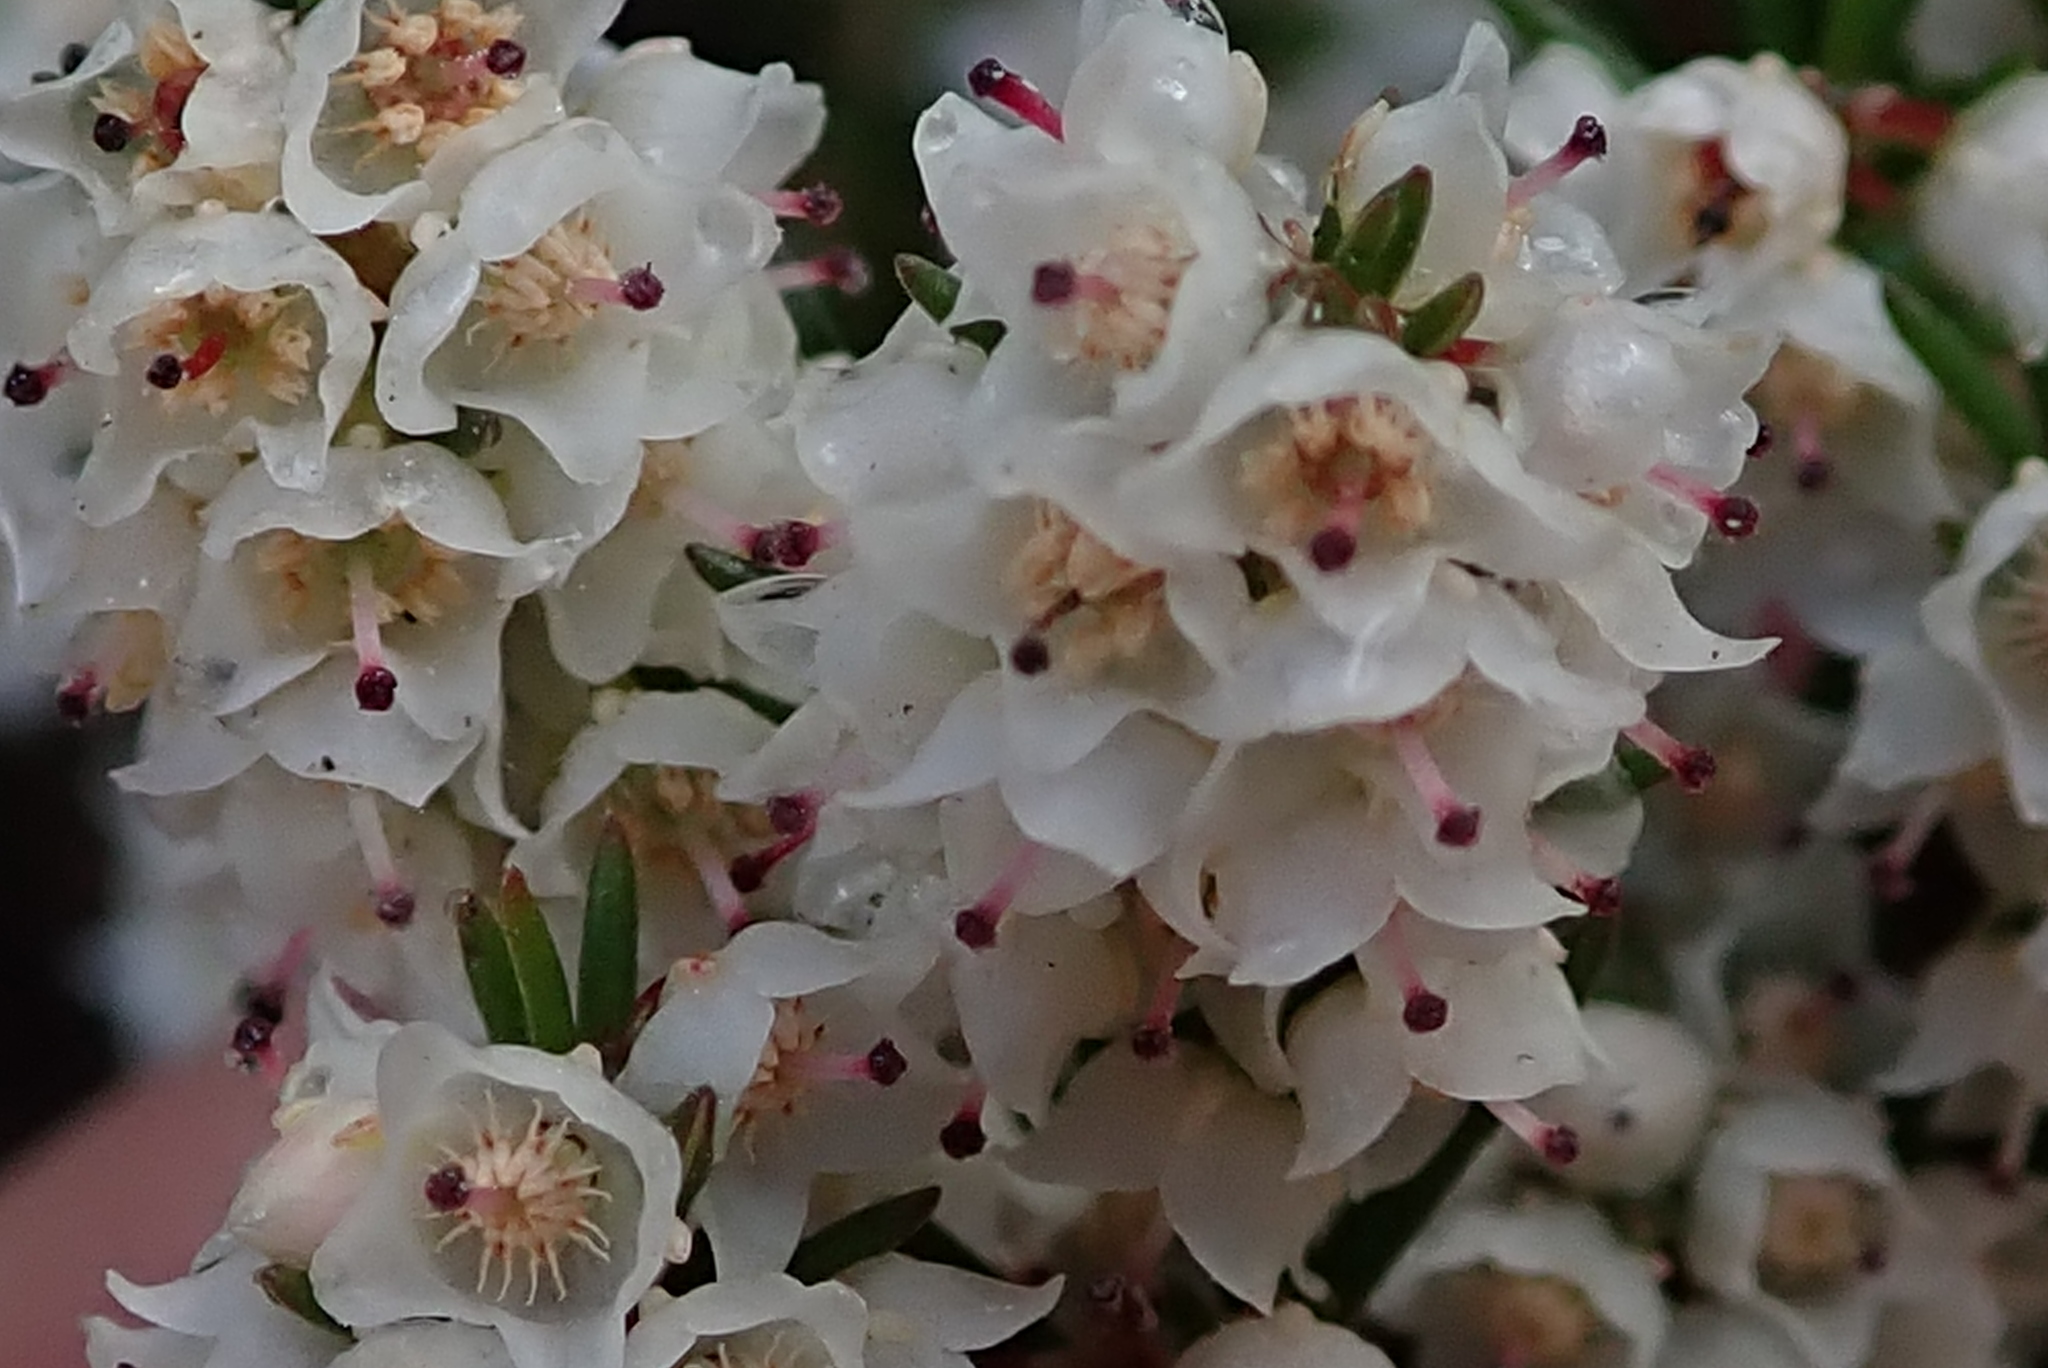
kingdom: Plantae
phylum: Tracheophyta
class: Magnoliopsida
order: Ericales
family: Ericaceae
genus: Erica
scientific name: Erica tenuis
